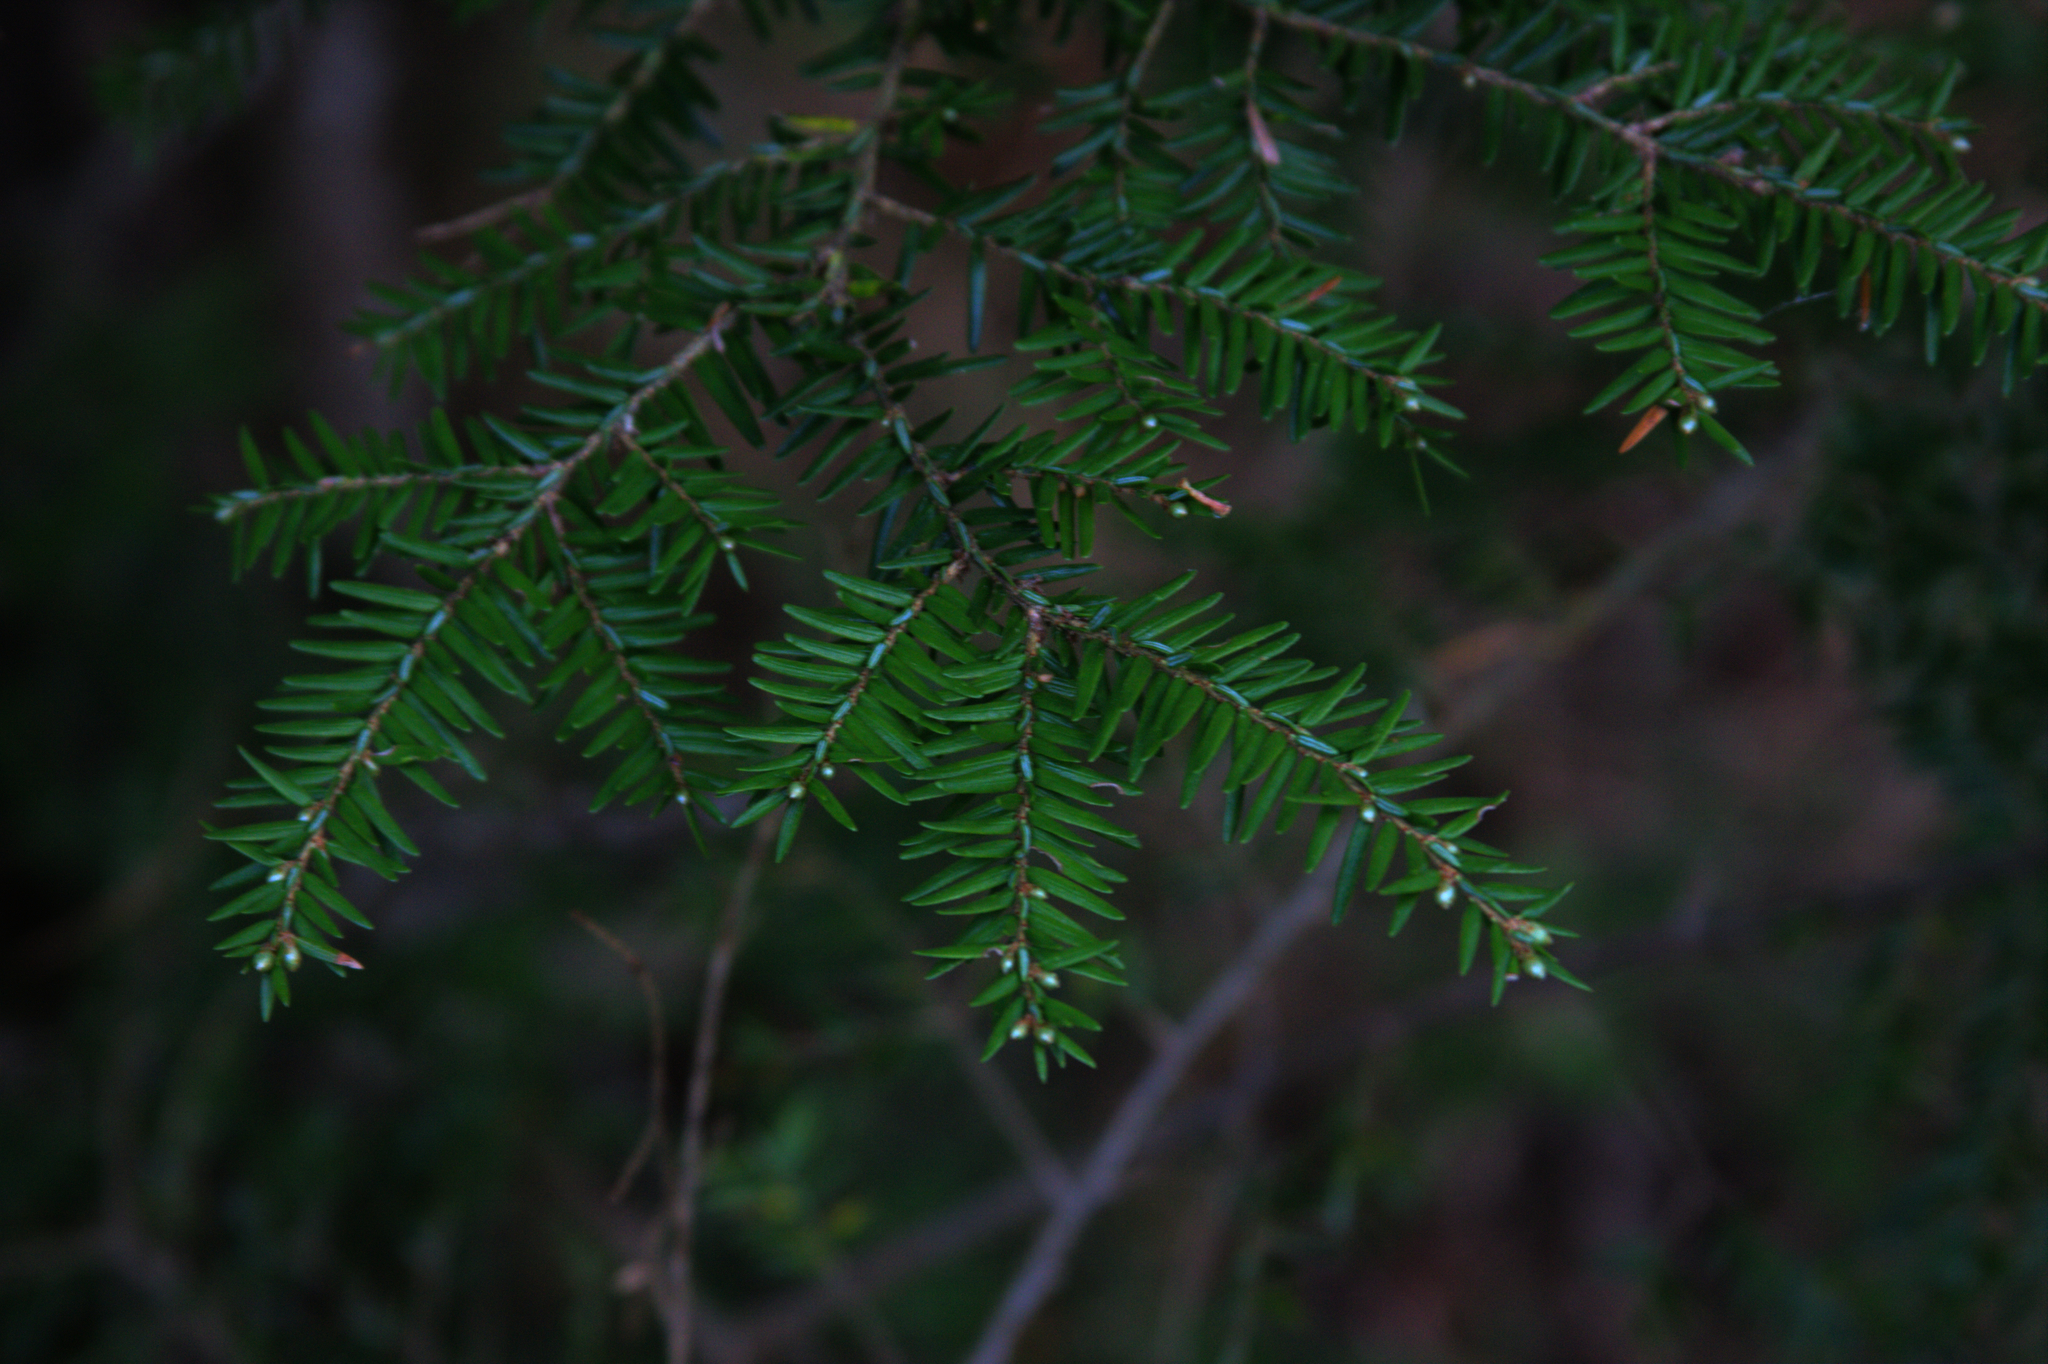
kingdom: Plantae
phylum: Tracheophyta
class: Pinopsida
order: Pinales
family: Pinaceae
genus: Tsuga
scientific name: Tsuga canadensis
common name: Eastern hemlock
